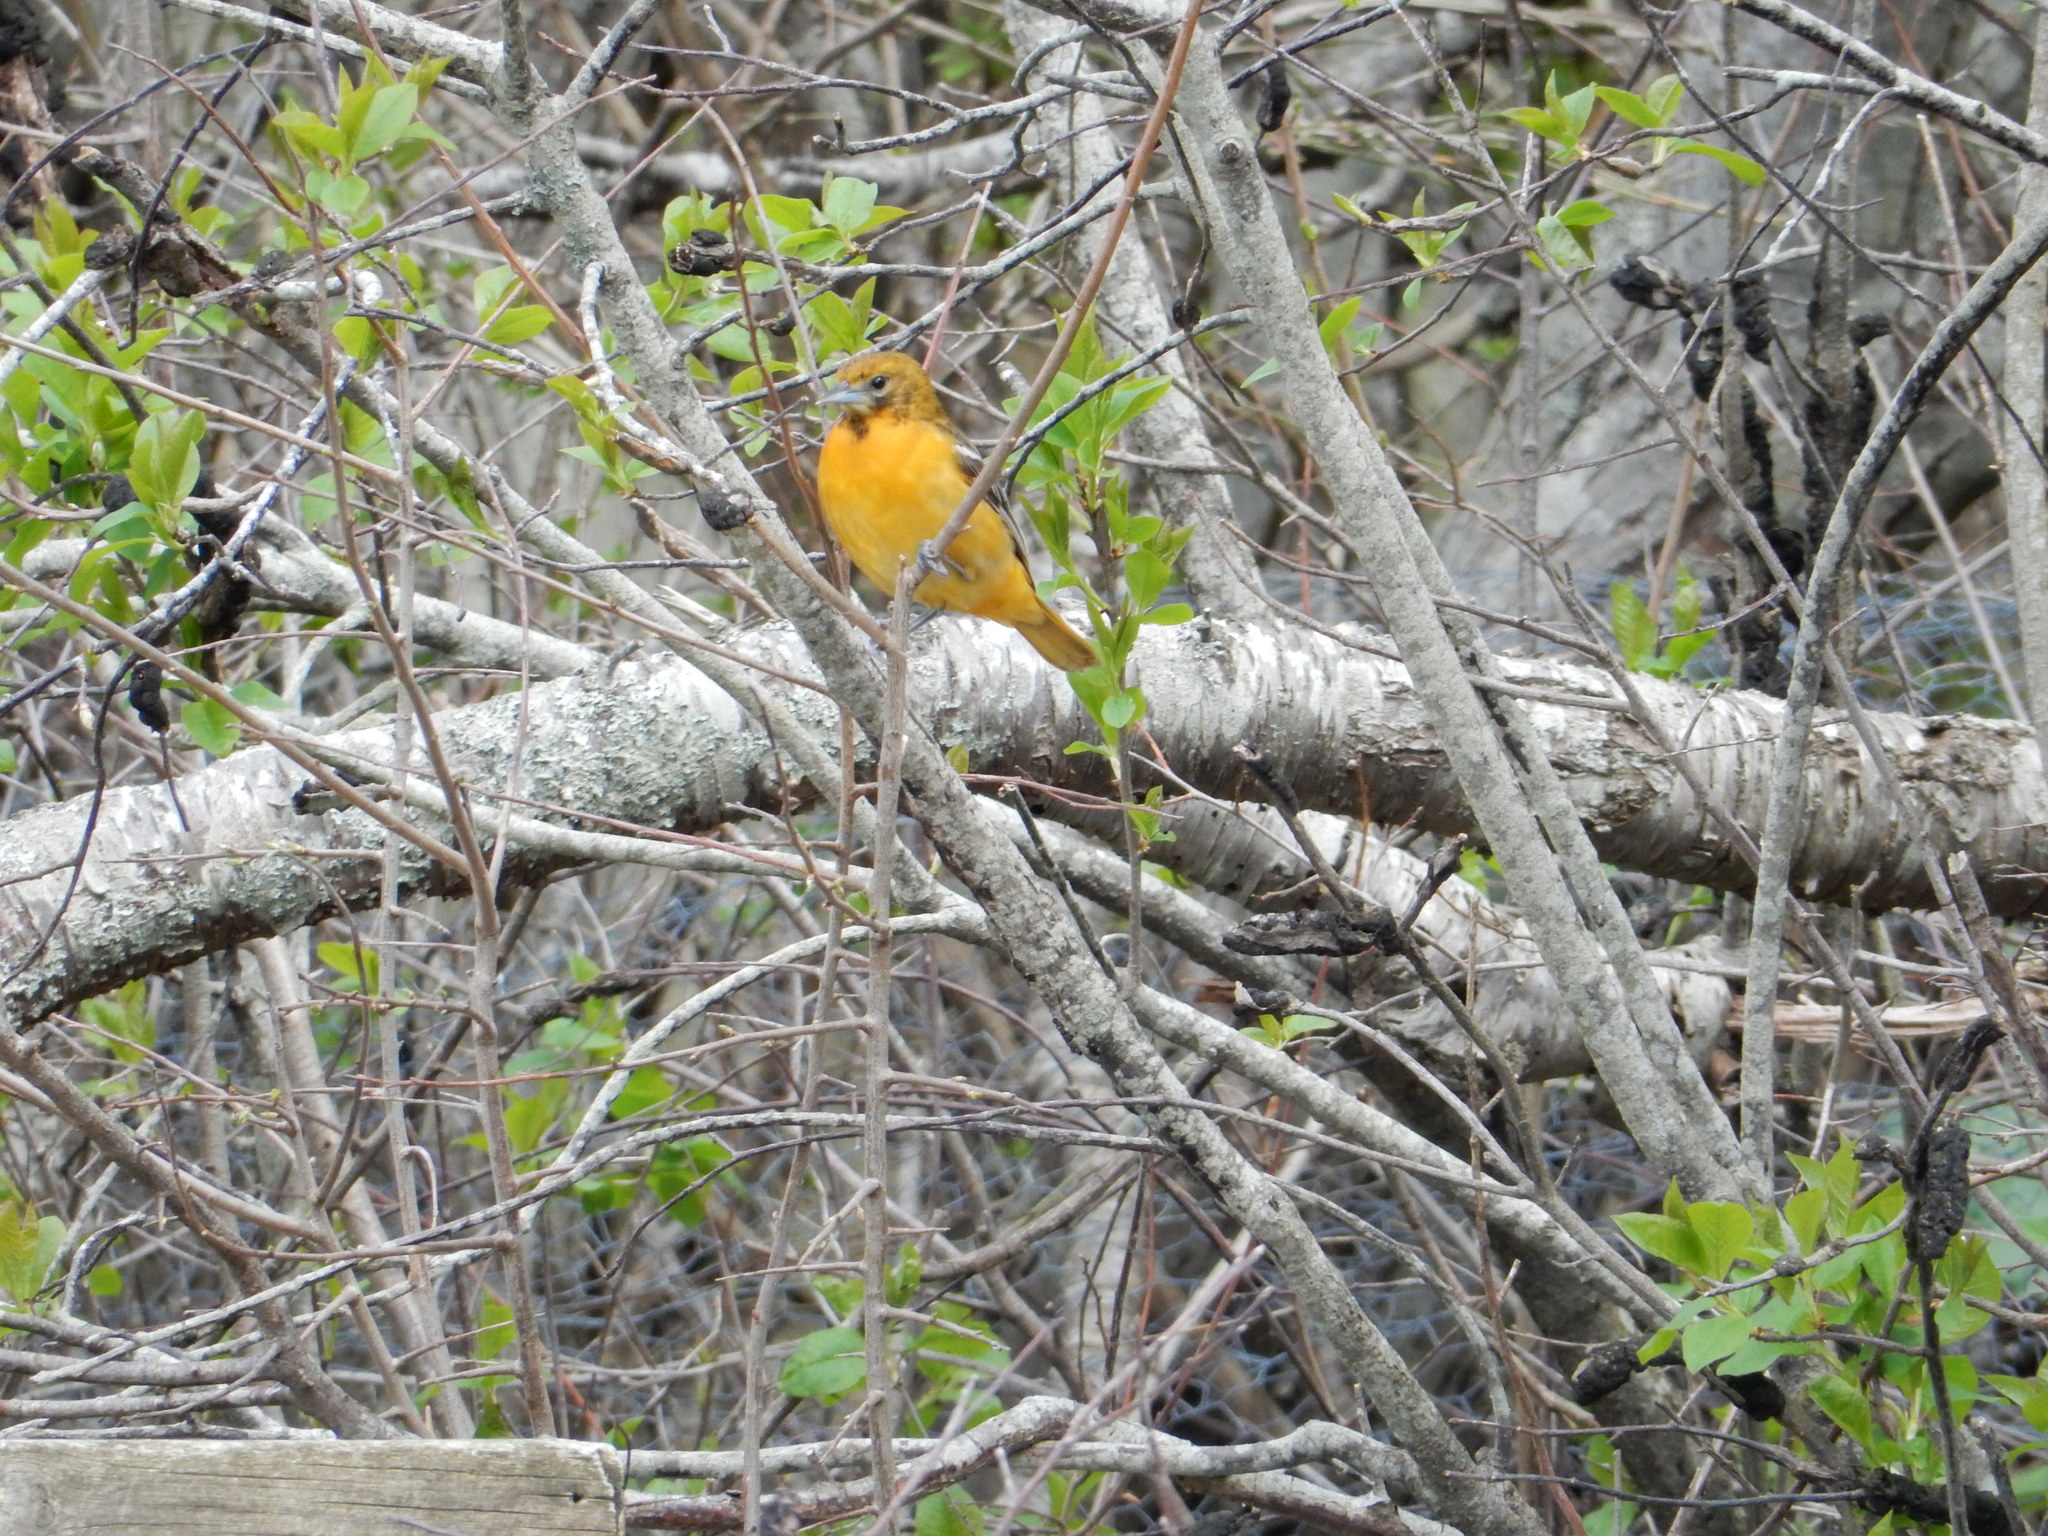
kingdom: Animalia
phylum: Chordata
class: Aves
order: Passeriformes
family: Icteridae
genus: Icterus
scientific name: Icterus galbula
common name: Baltimore oriole
